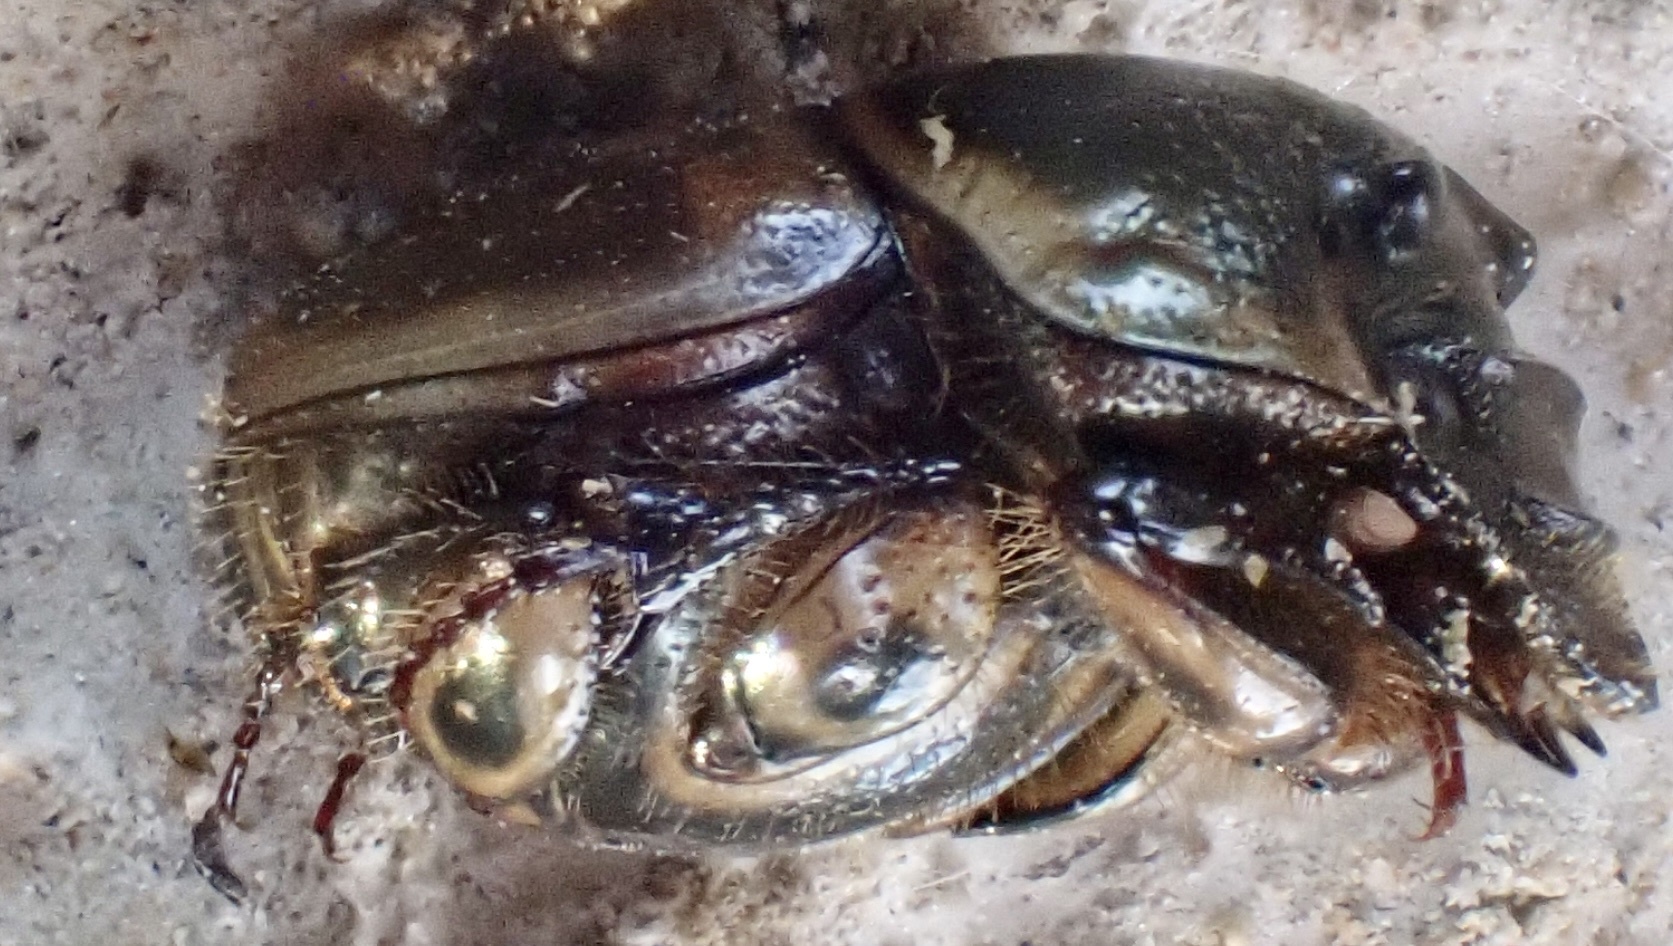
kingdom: Animalia
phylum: Arthropoda
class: Insecta
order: Coleoptera
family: Scarabaeidae
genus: Digitonthophagus
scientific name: Digitonthophagus gazella
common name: Brown dung beetle
